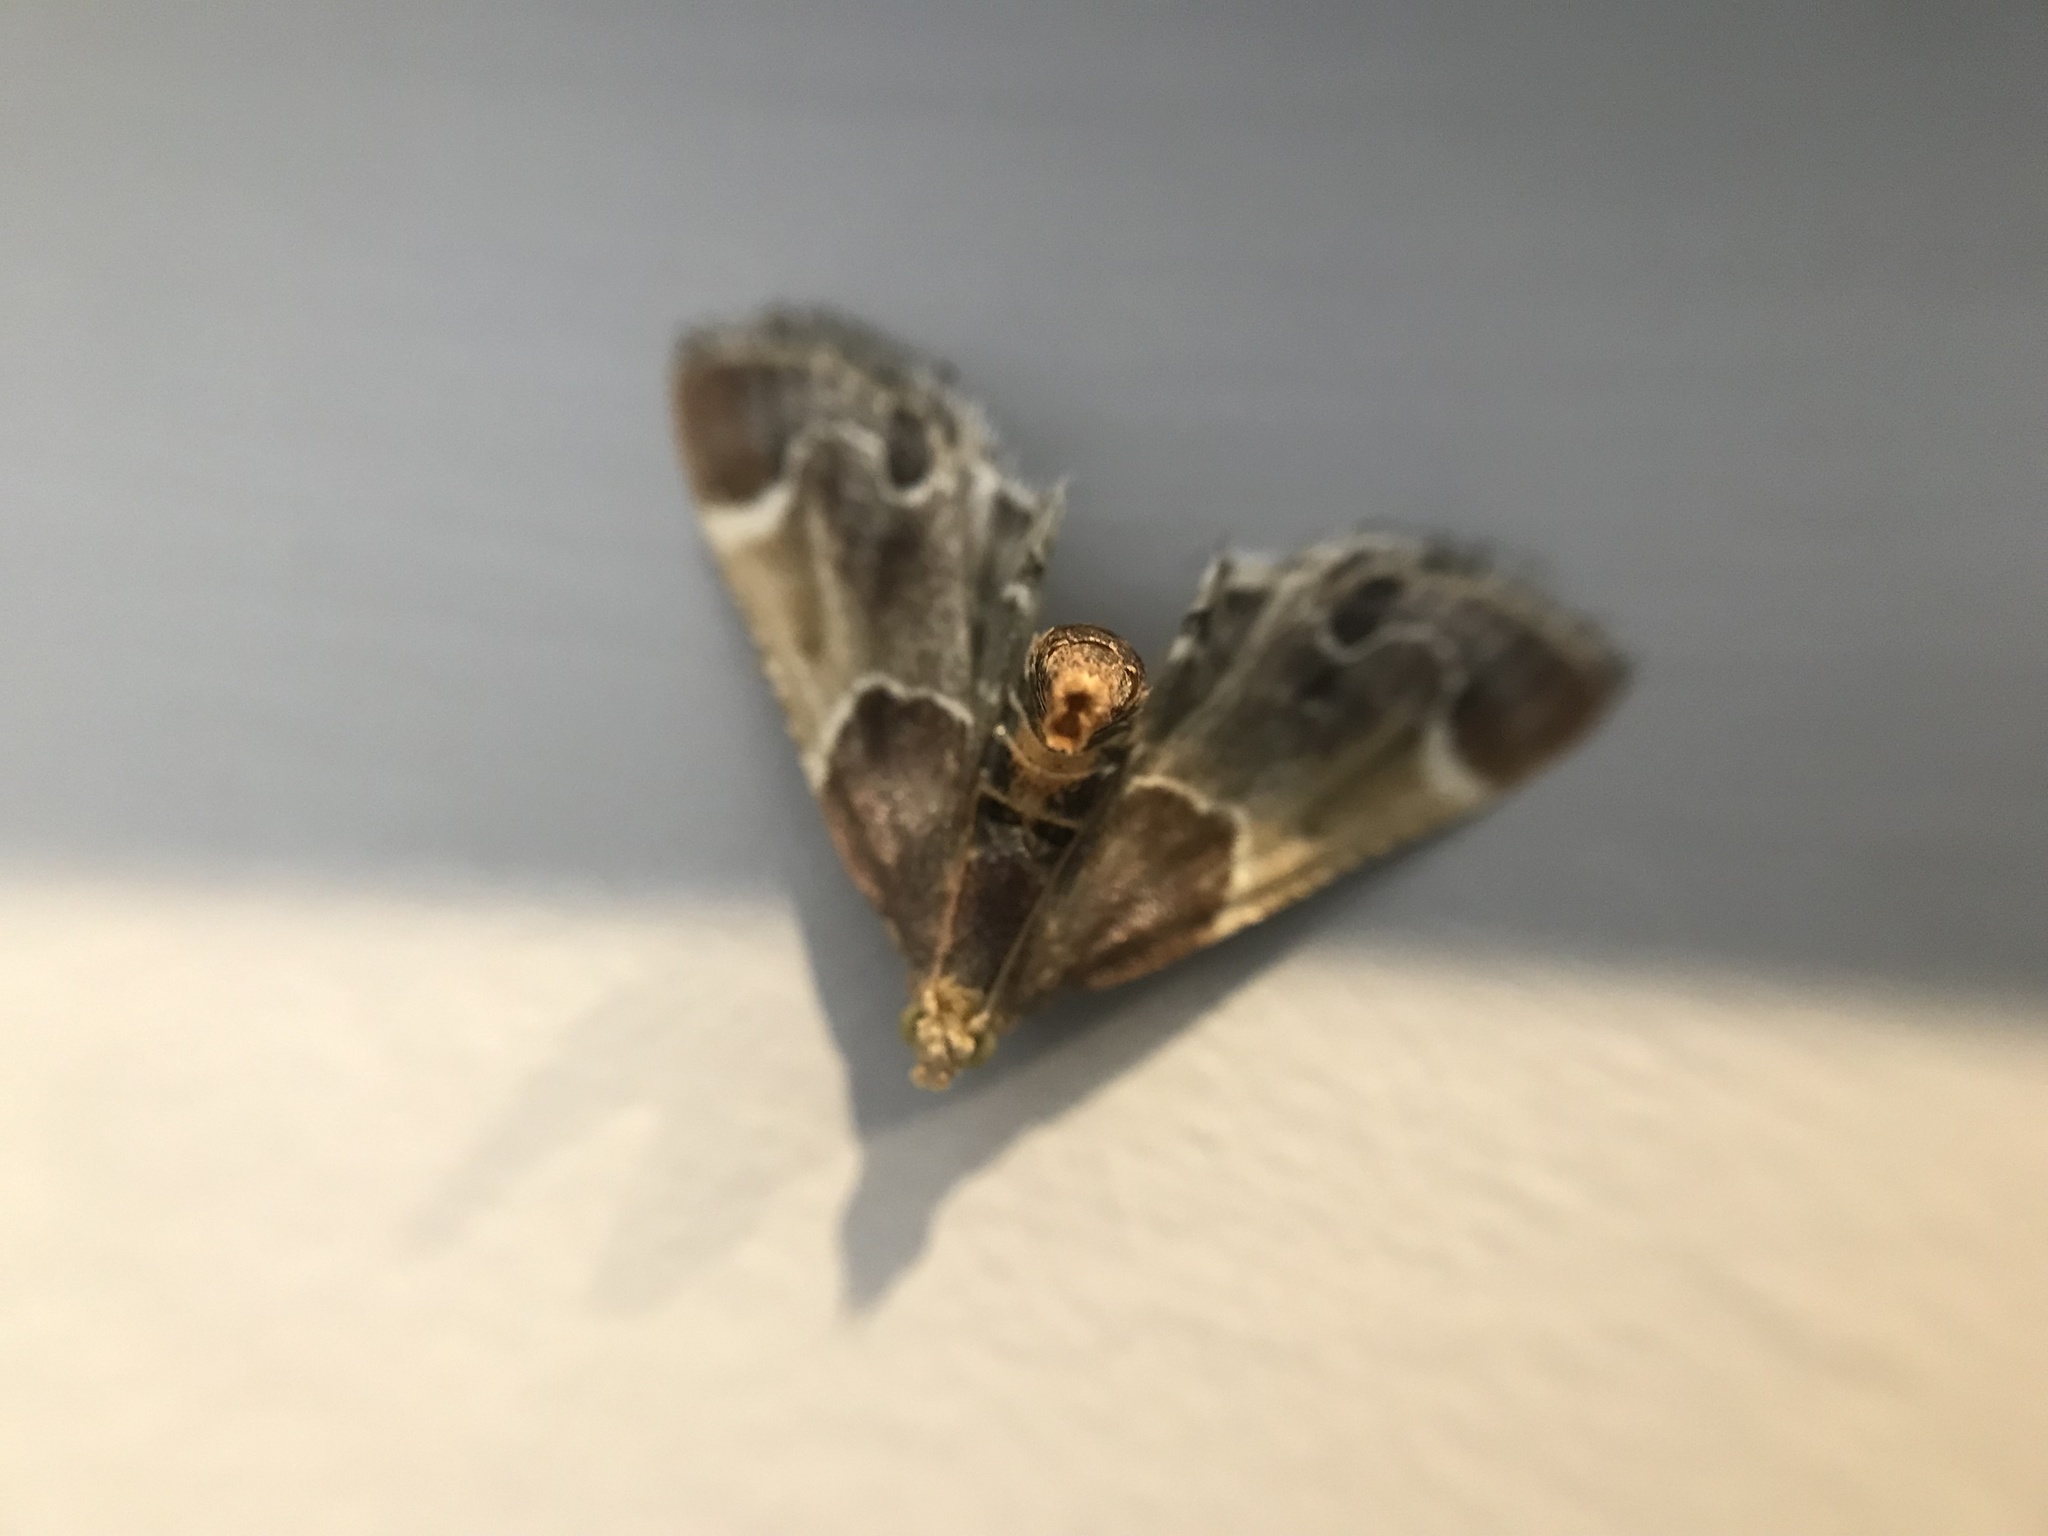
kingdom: Animalia
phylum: Arthropoda
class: Insecta
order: Lepidoptera
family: Pyralidae
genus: Pyralis
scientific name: Pyralis farinalis
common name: Meal moth
